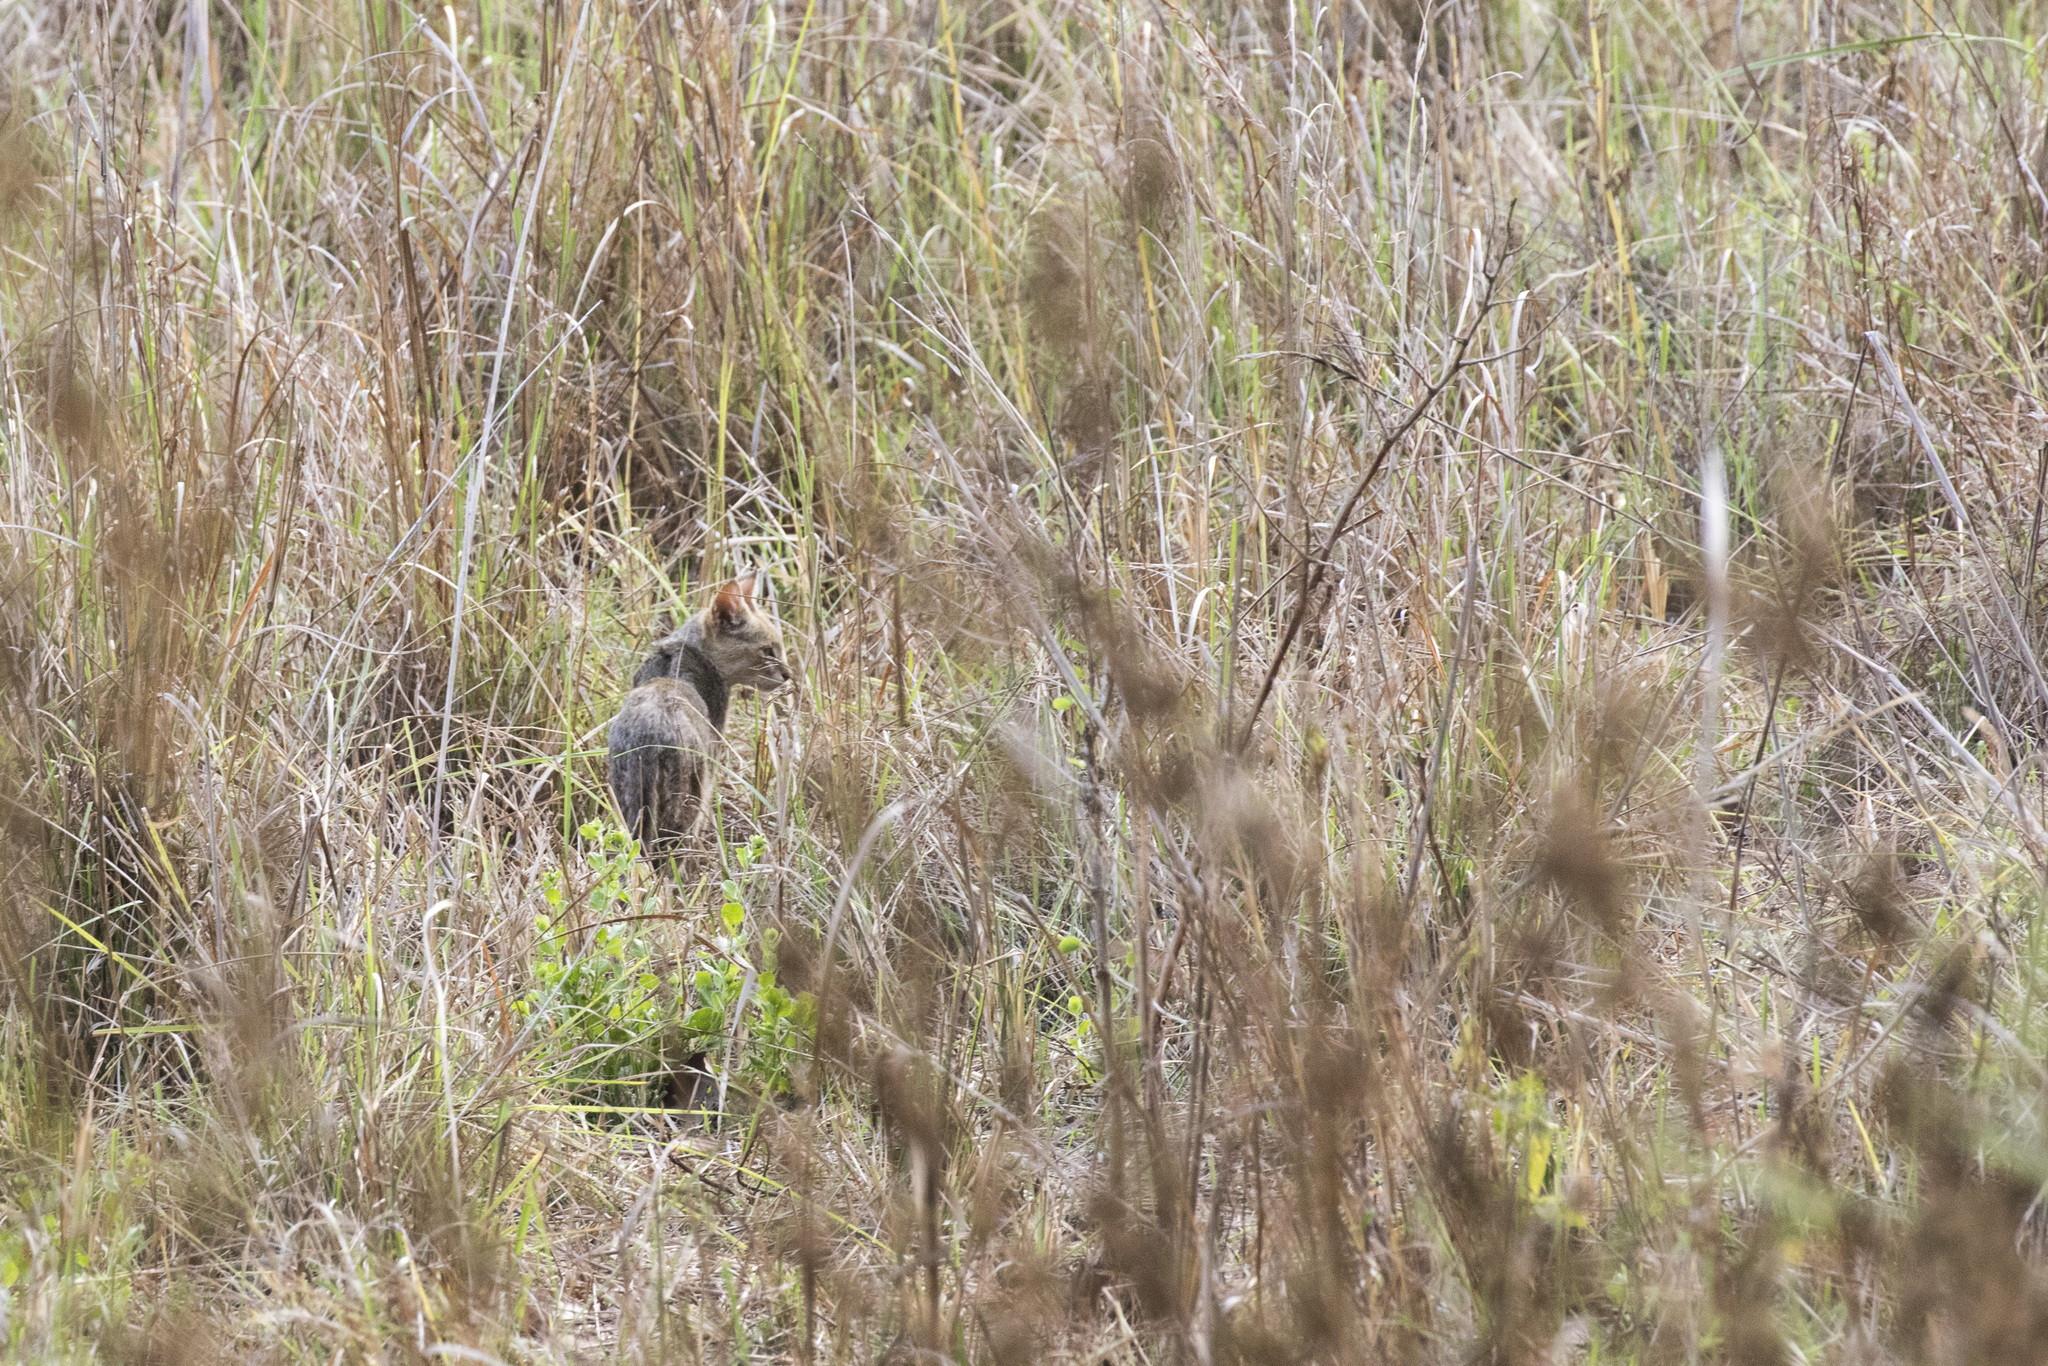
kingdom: Animalia
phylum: Chordata
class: Mammalia
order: Carnivora
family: Felidae
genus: Felis
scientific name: Felis chaus
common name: Jungle cat
